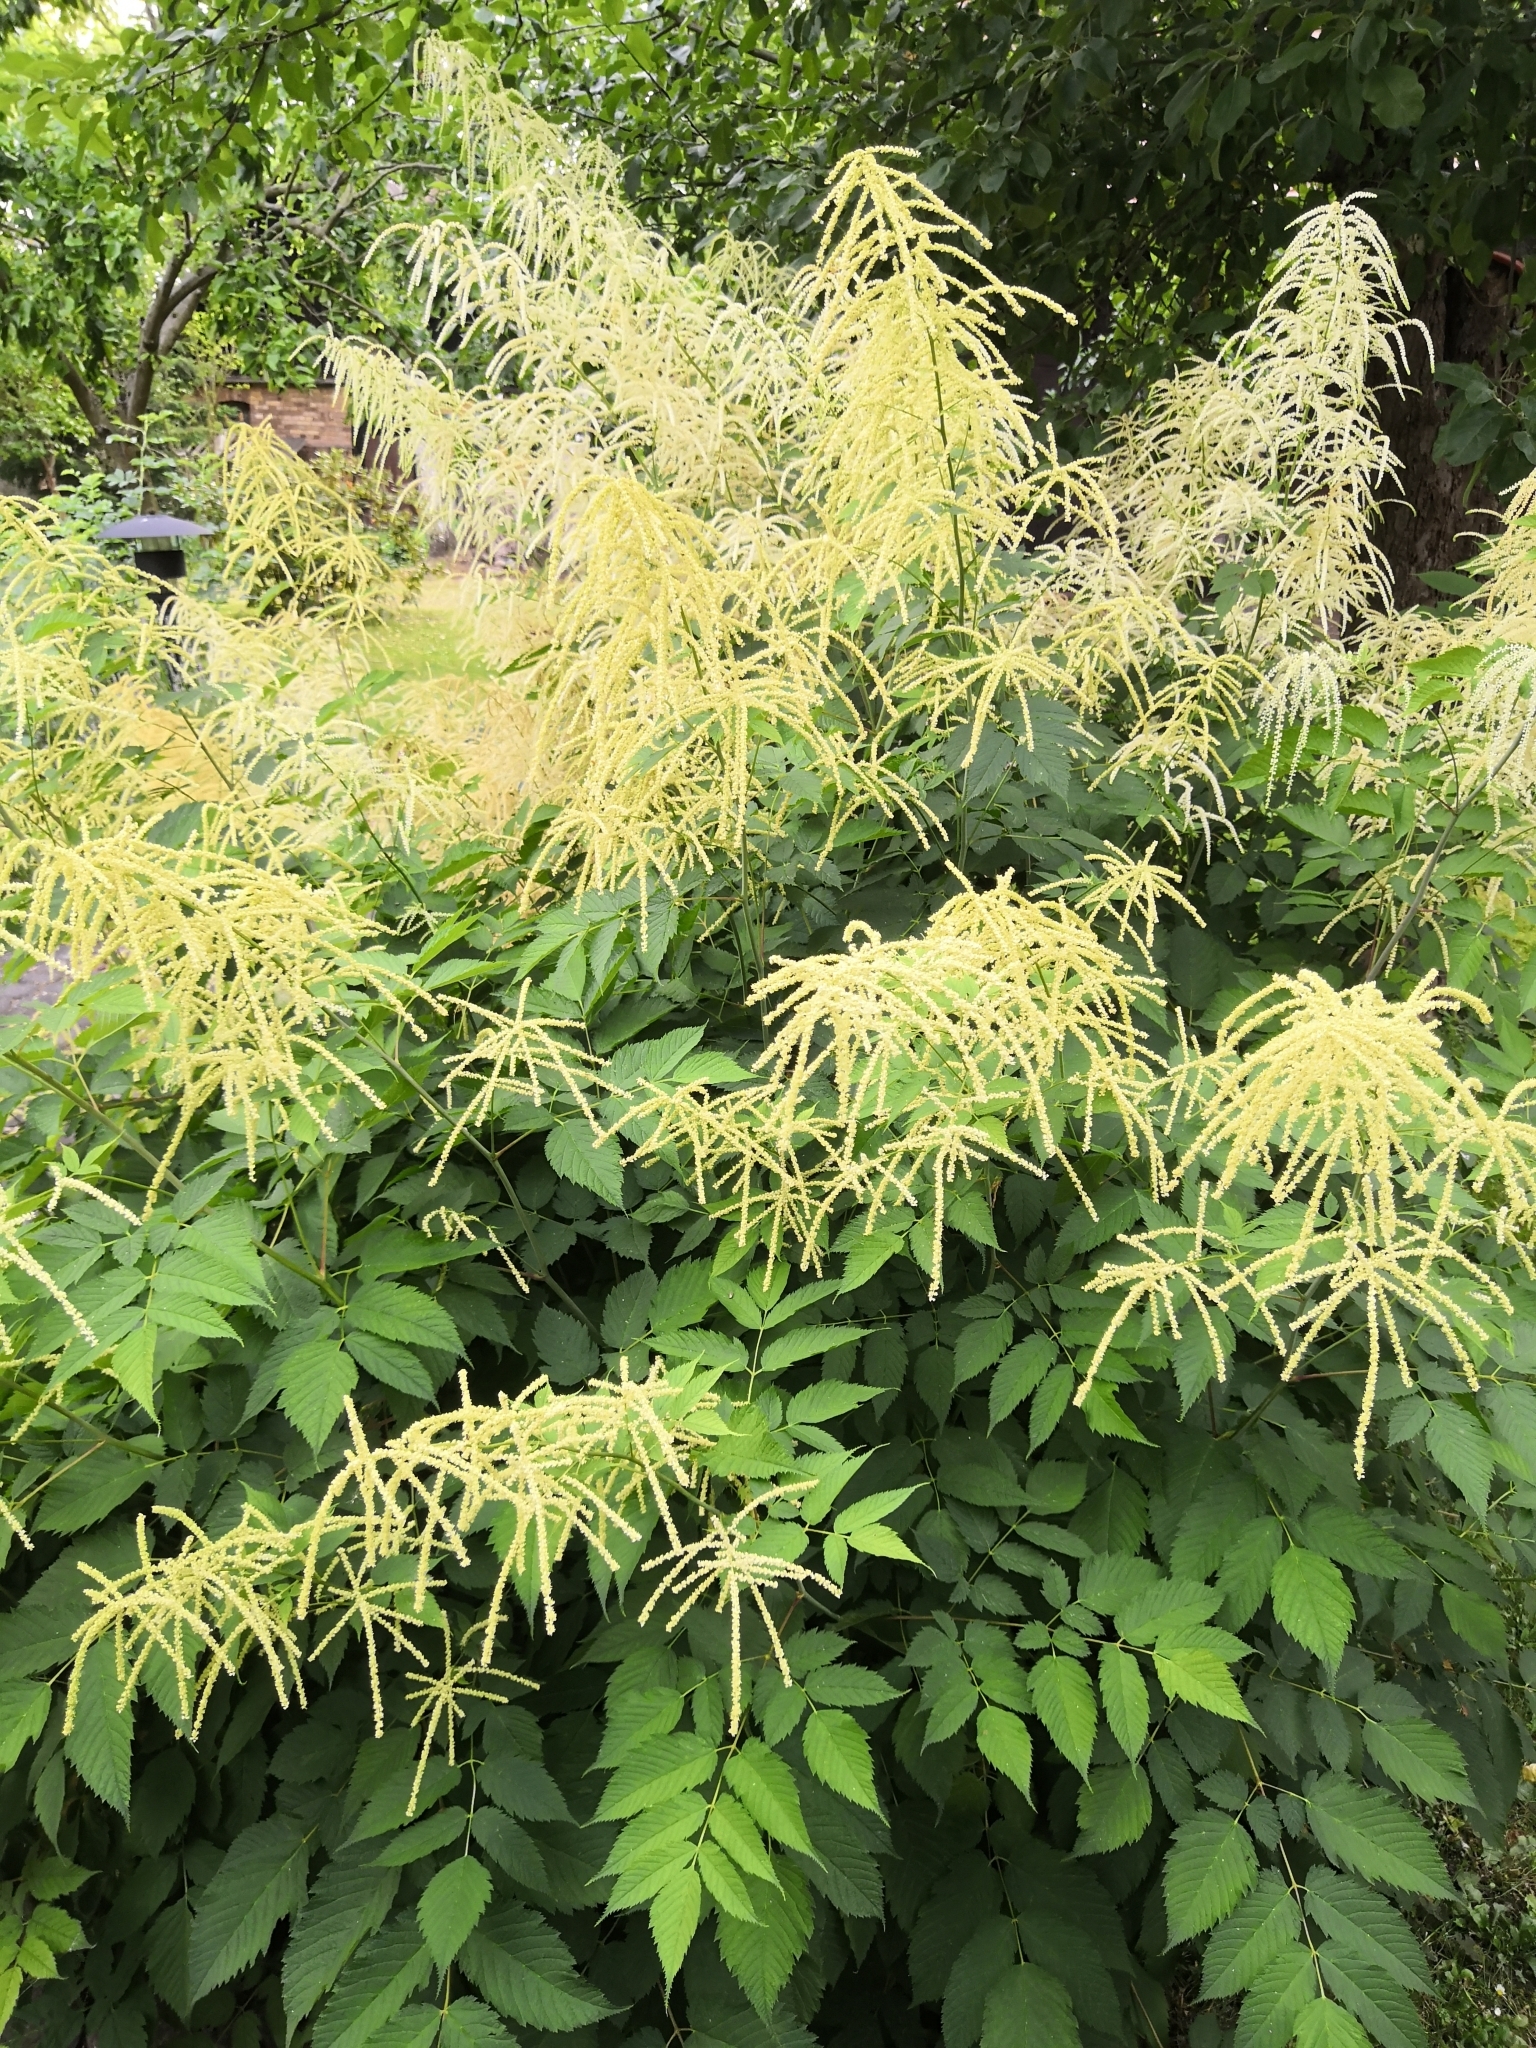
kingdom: Plantae
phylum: Tracheophyta
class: Magnoliopsida
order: Rosales
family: Rosaceae
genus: Aruncus
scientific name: Aruncus dioicus
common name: Buck's-beard
